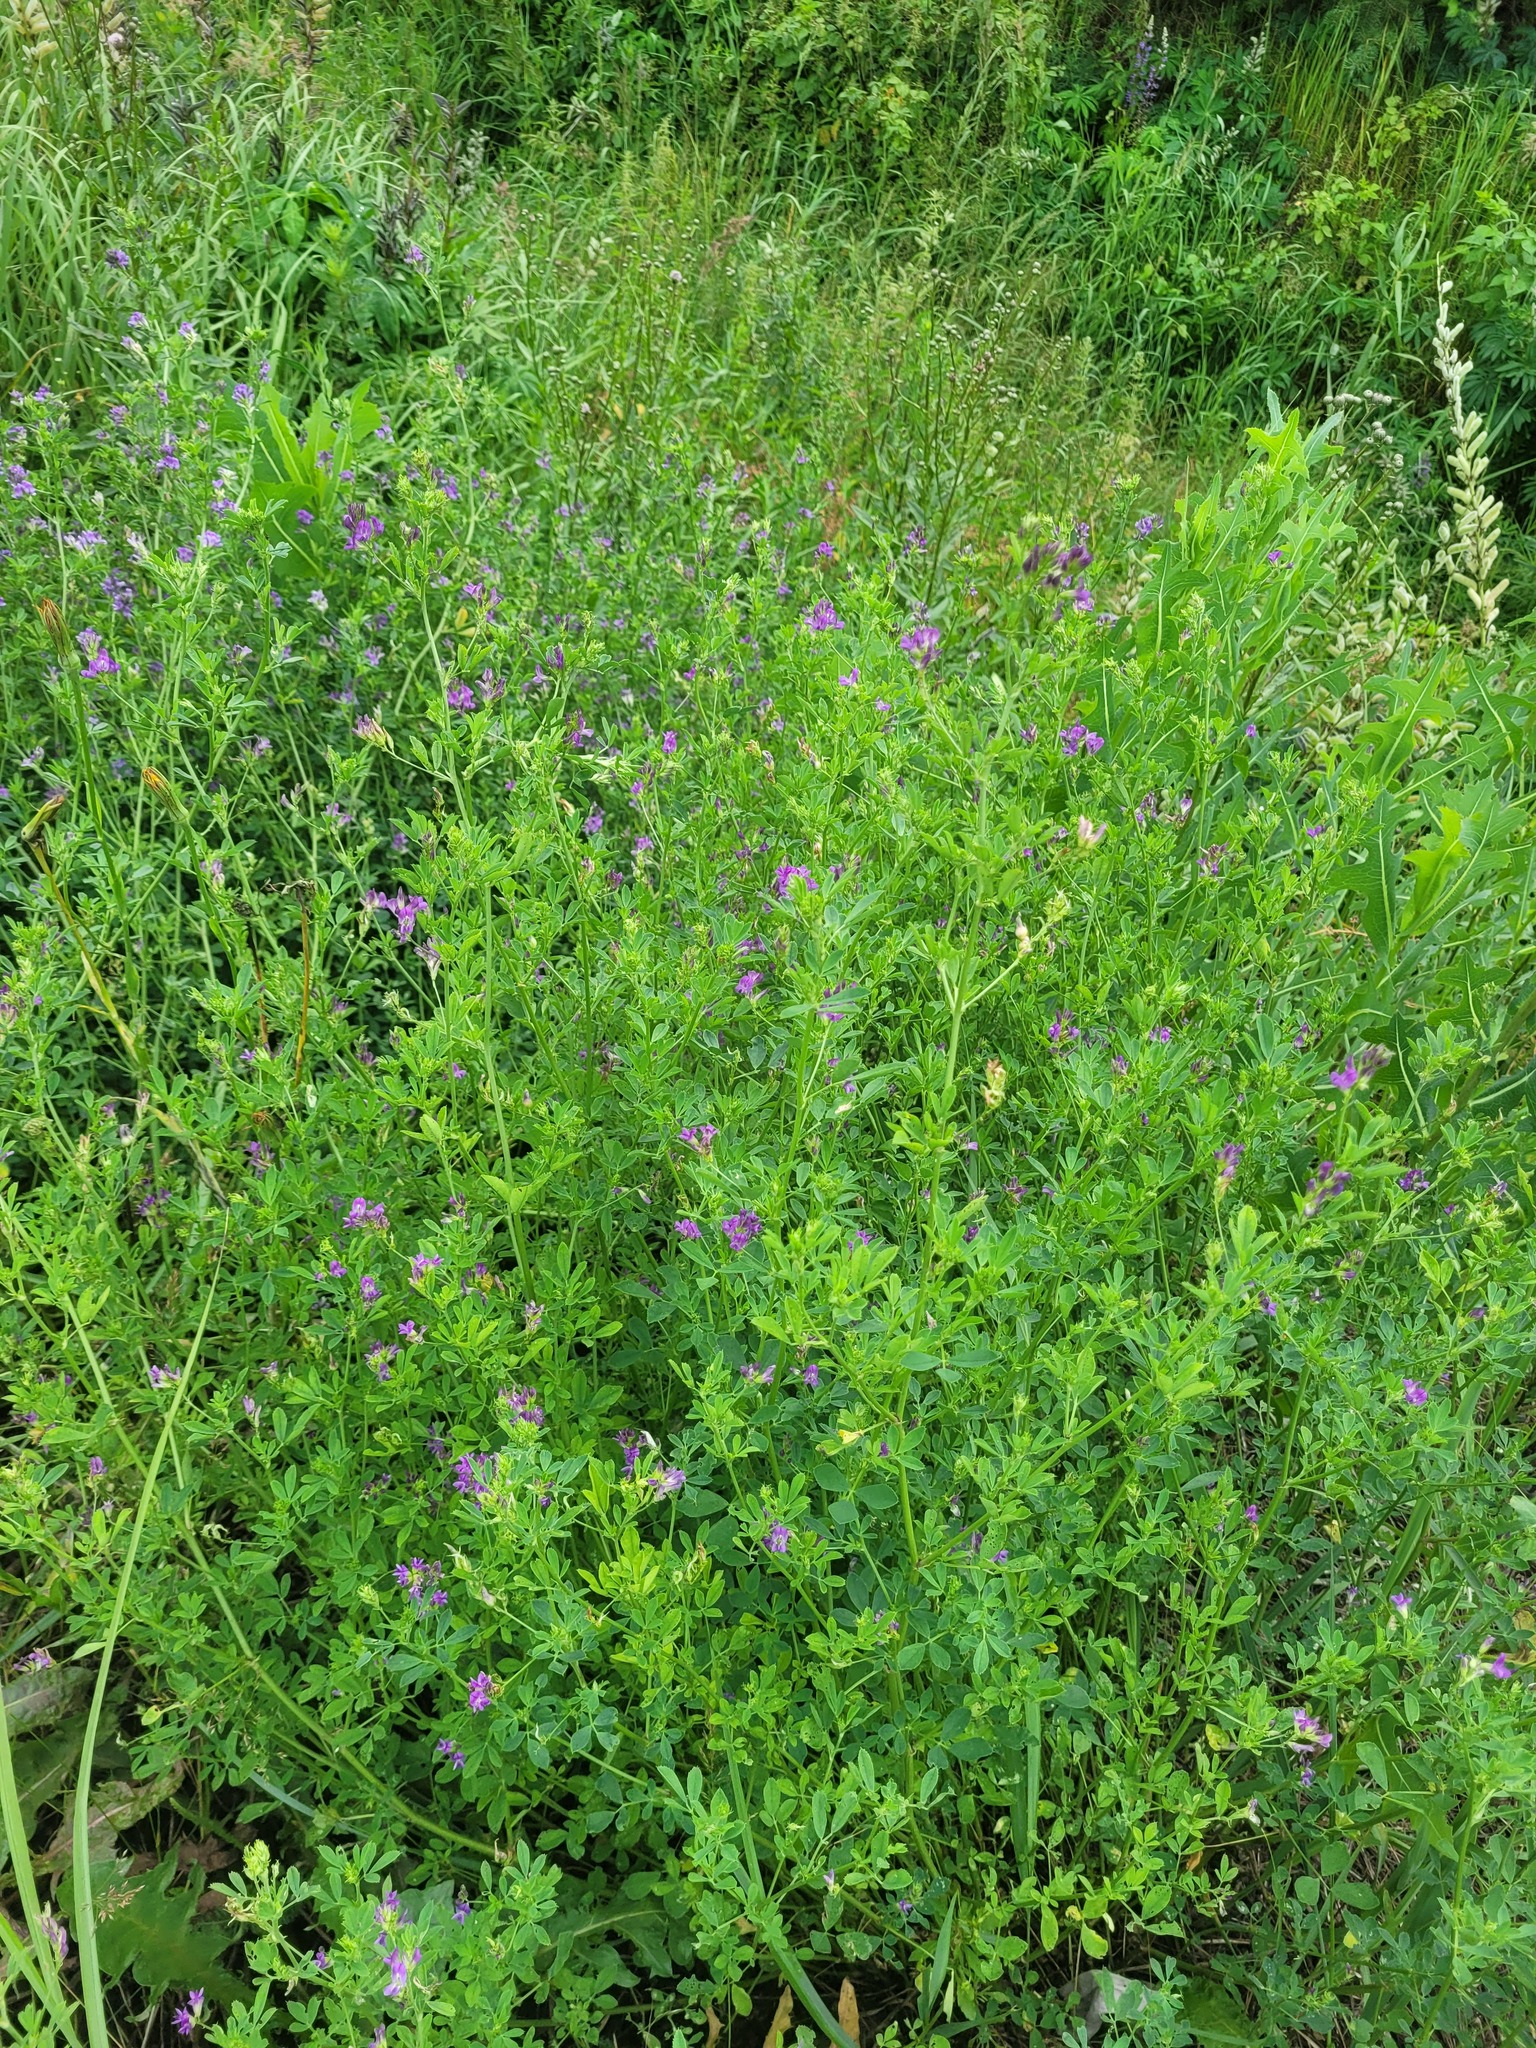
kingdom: Plantae
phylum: Tracheophyta
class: Magnoliopsida
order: Fabales
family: Fabaceae
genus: Medicago
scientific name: Medicago sativa
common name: Alfalfa
